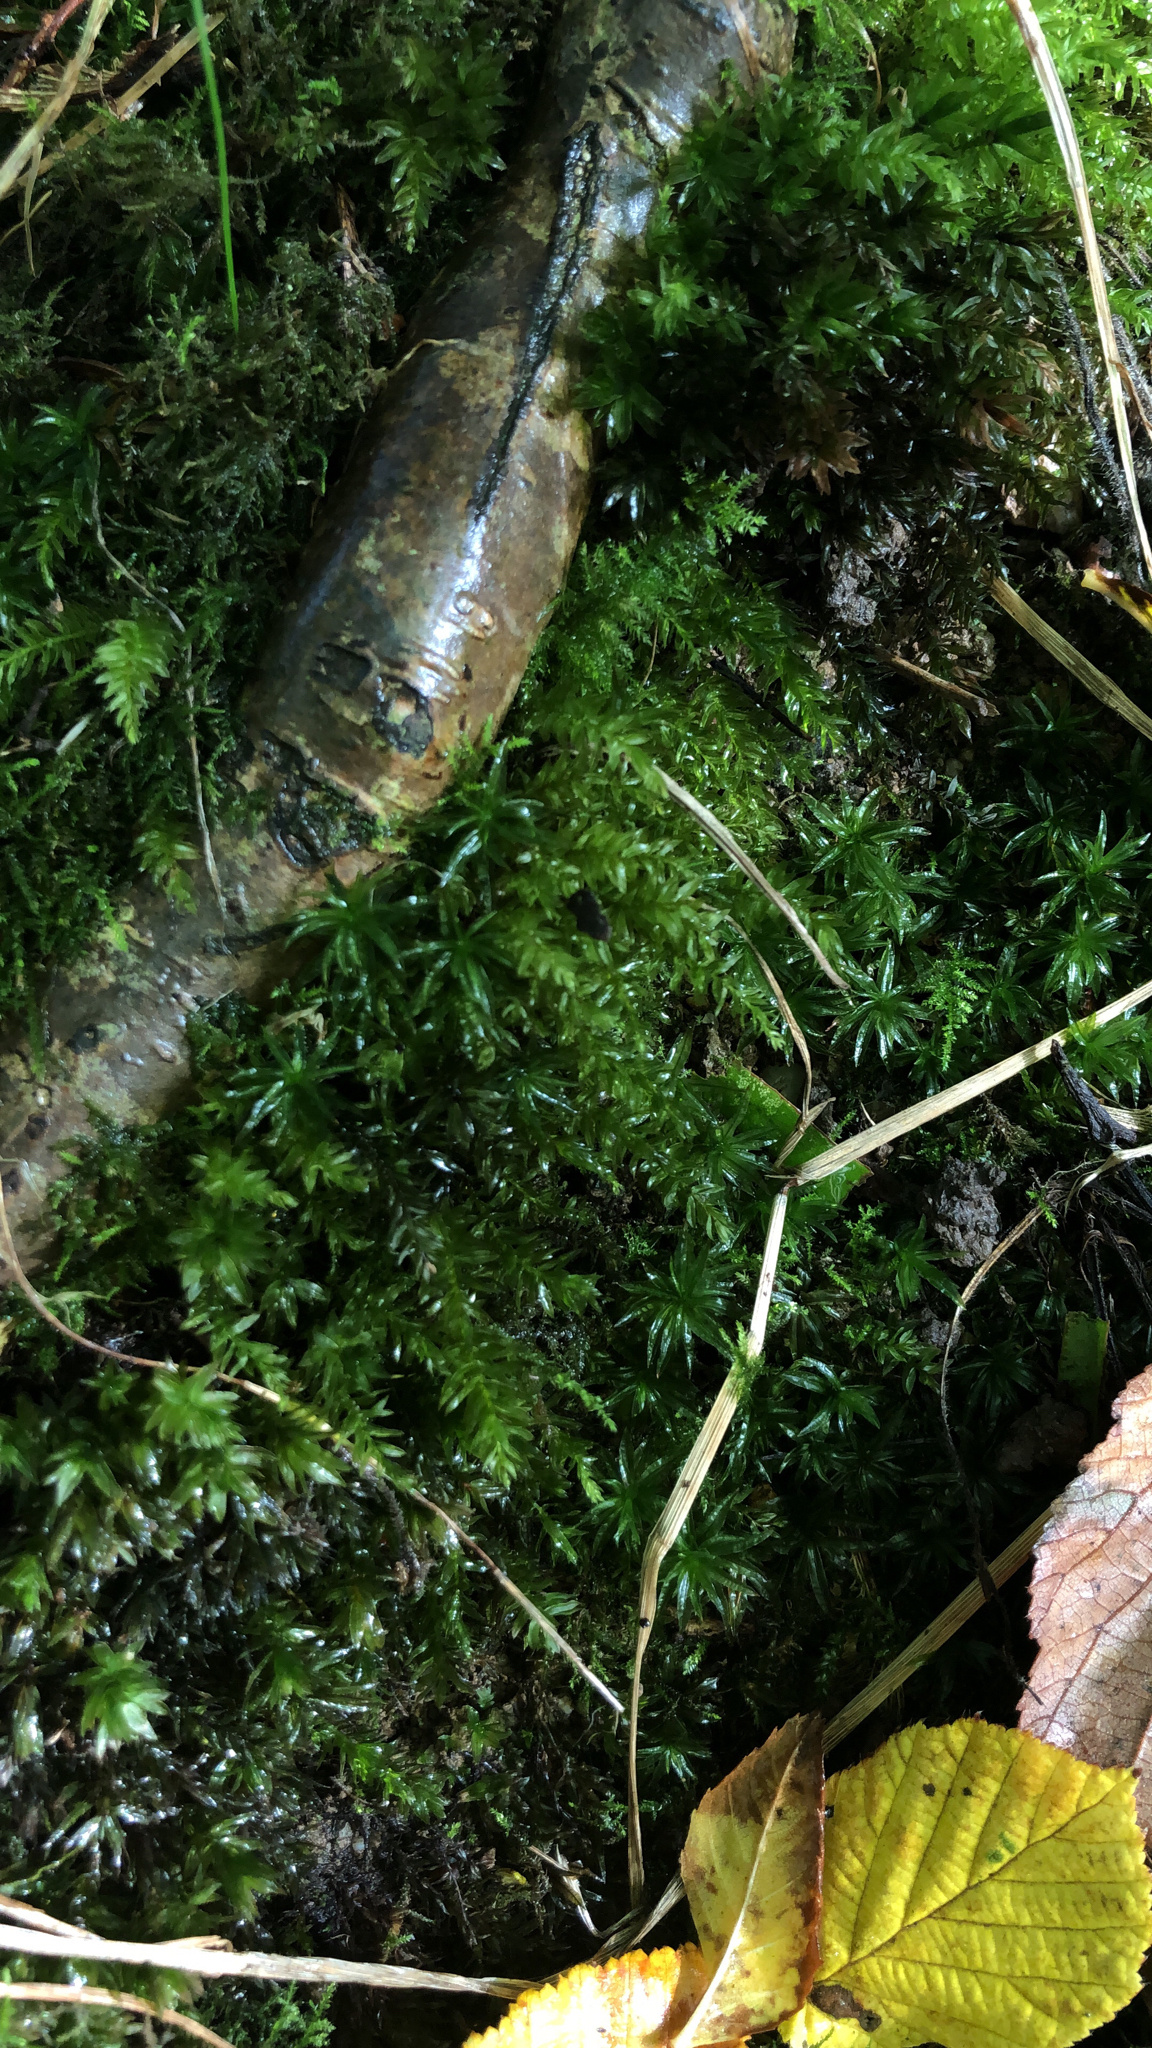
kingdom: Plantae
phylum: Bryophyta
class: Polytrichopsida
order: Polytrichales
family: Polytrichaceae
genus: Atrichum
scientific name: Atrichum undulatum
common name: Common smoothcap
